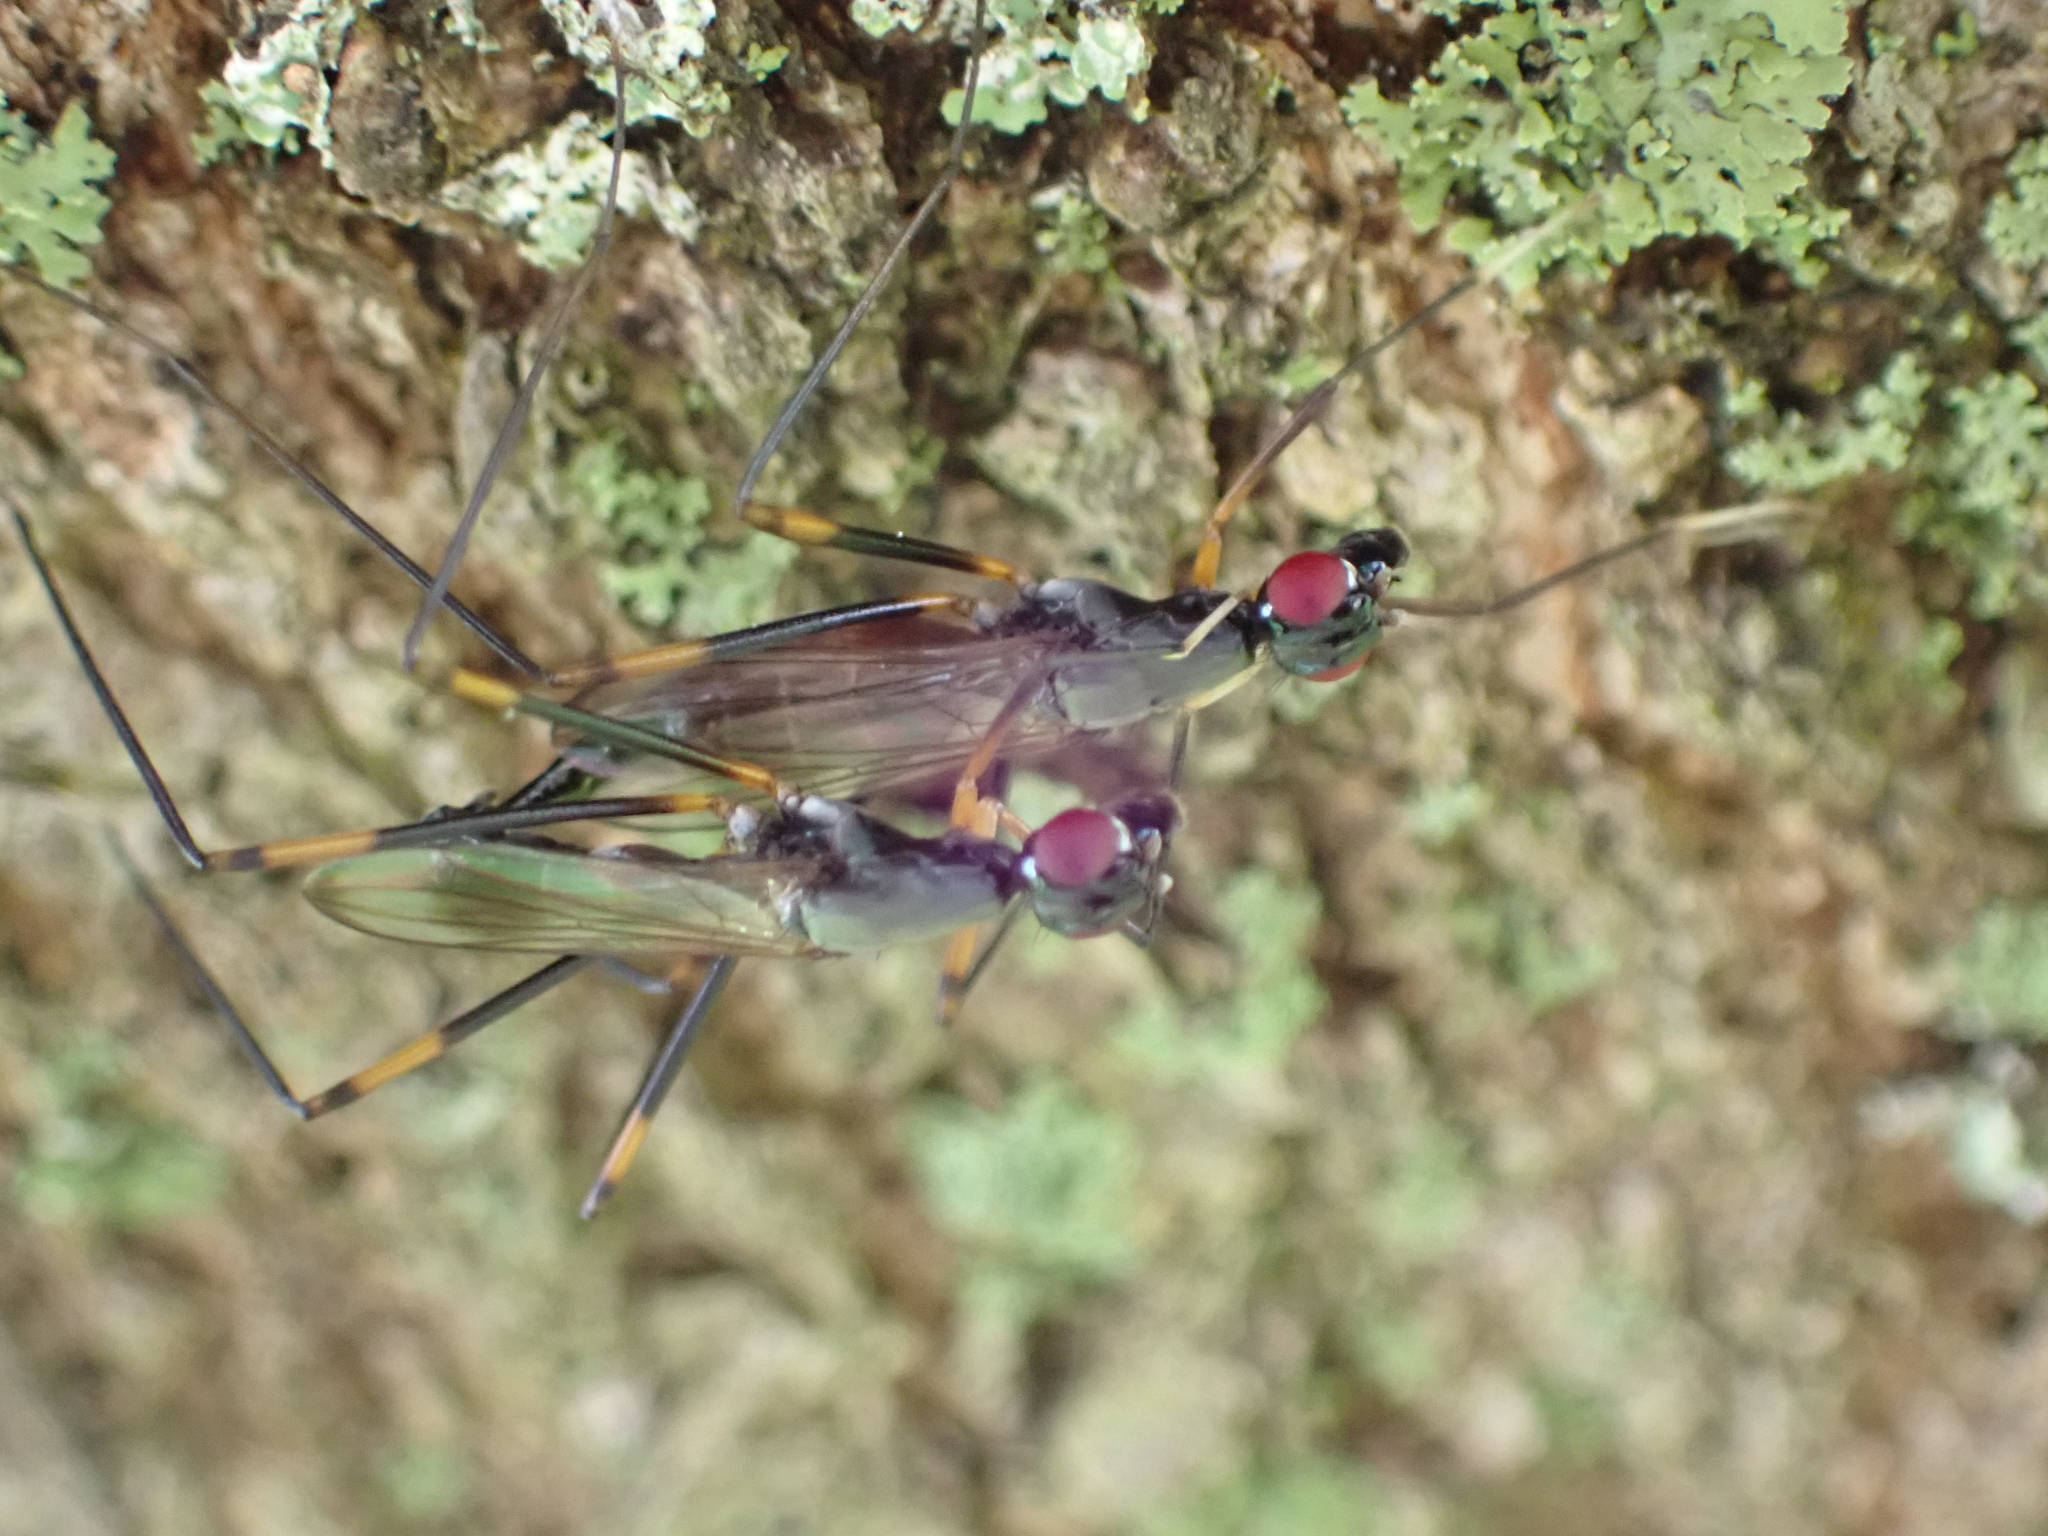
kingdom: Animalia
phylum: Arthropoda
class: Insecta
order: Diptera
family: Micropezidae
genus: Rainieria
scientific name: Rainieria antennaepes
